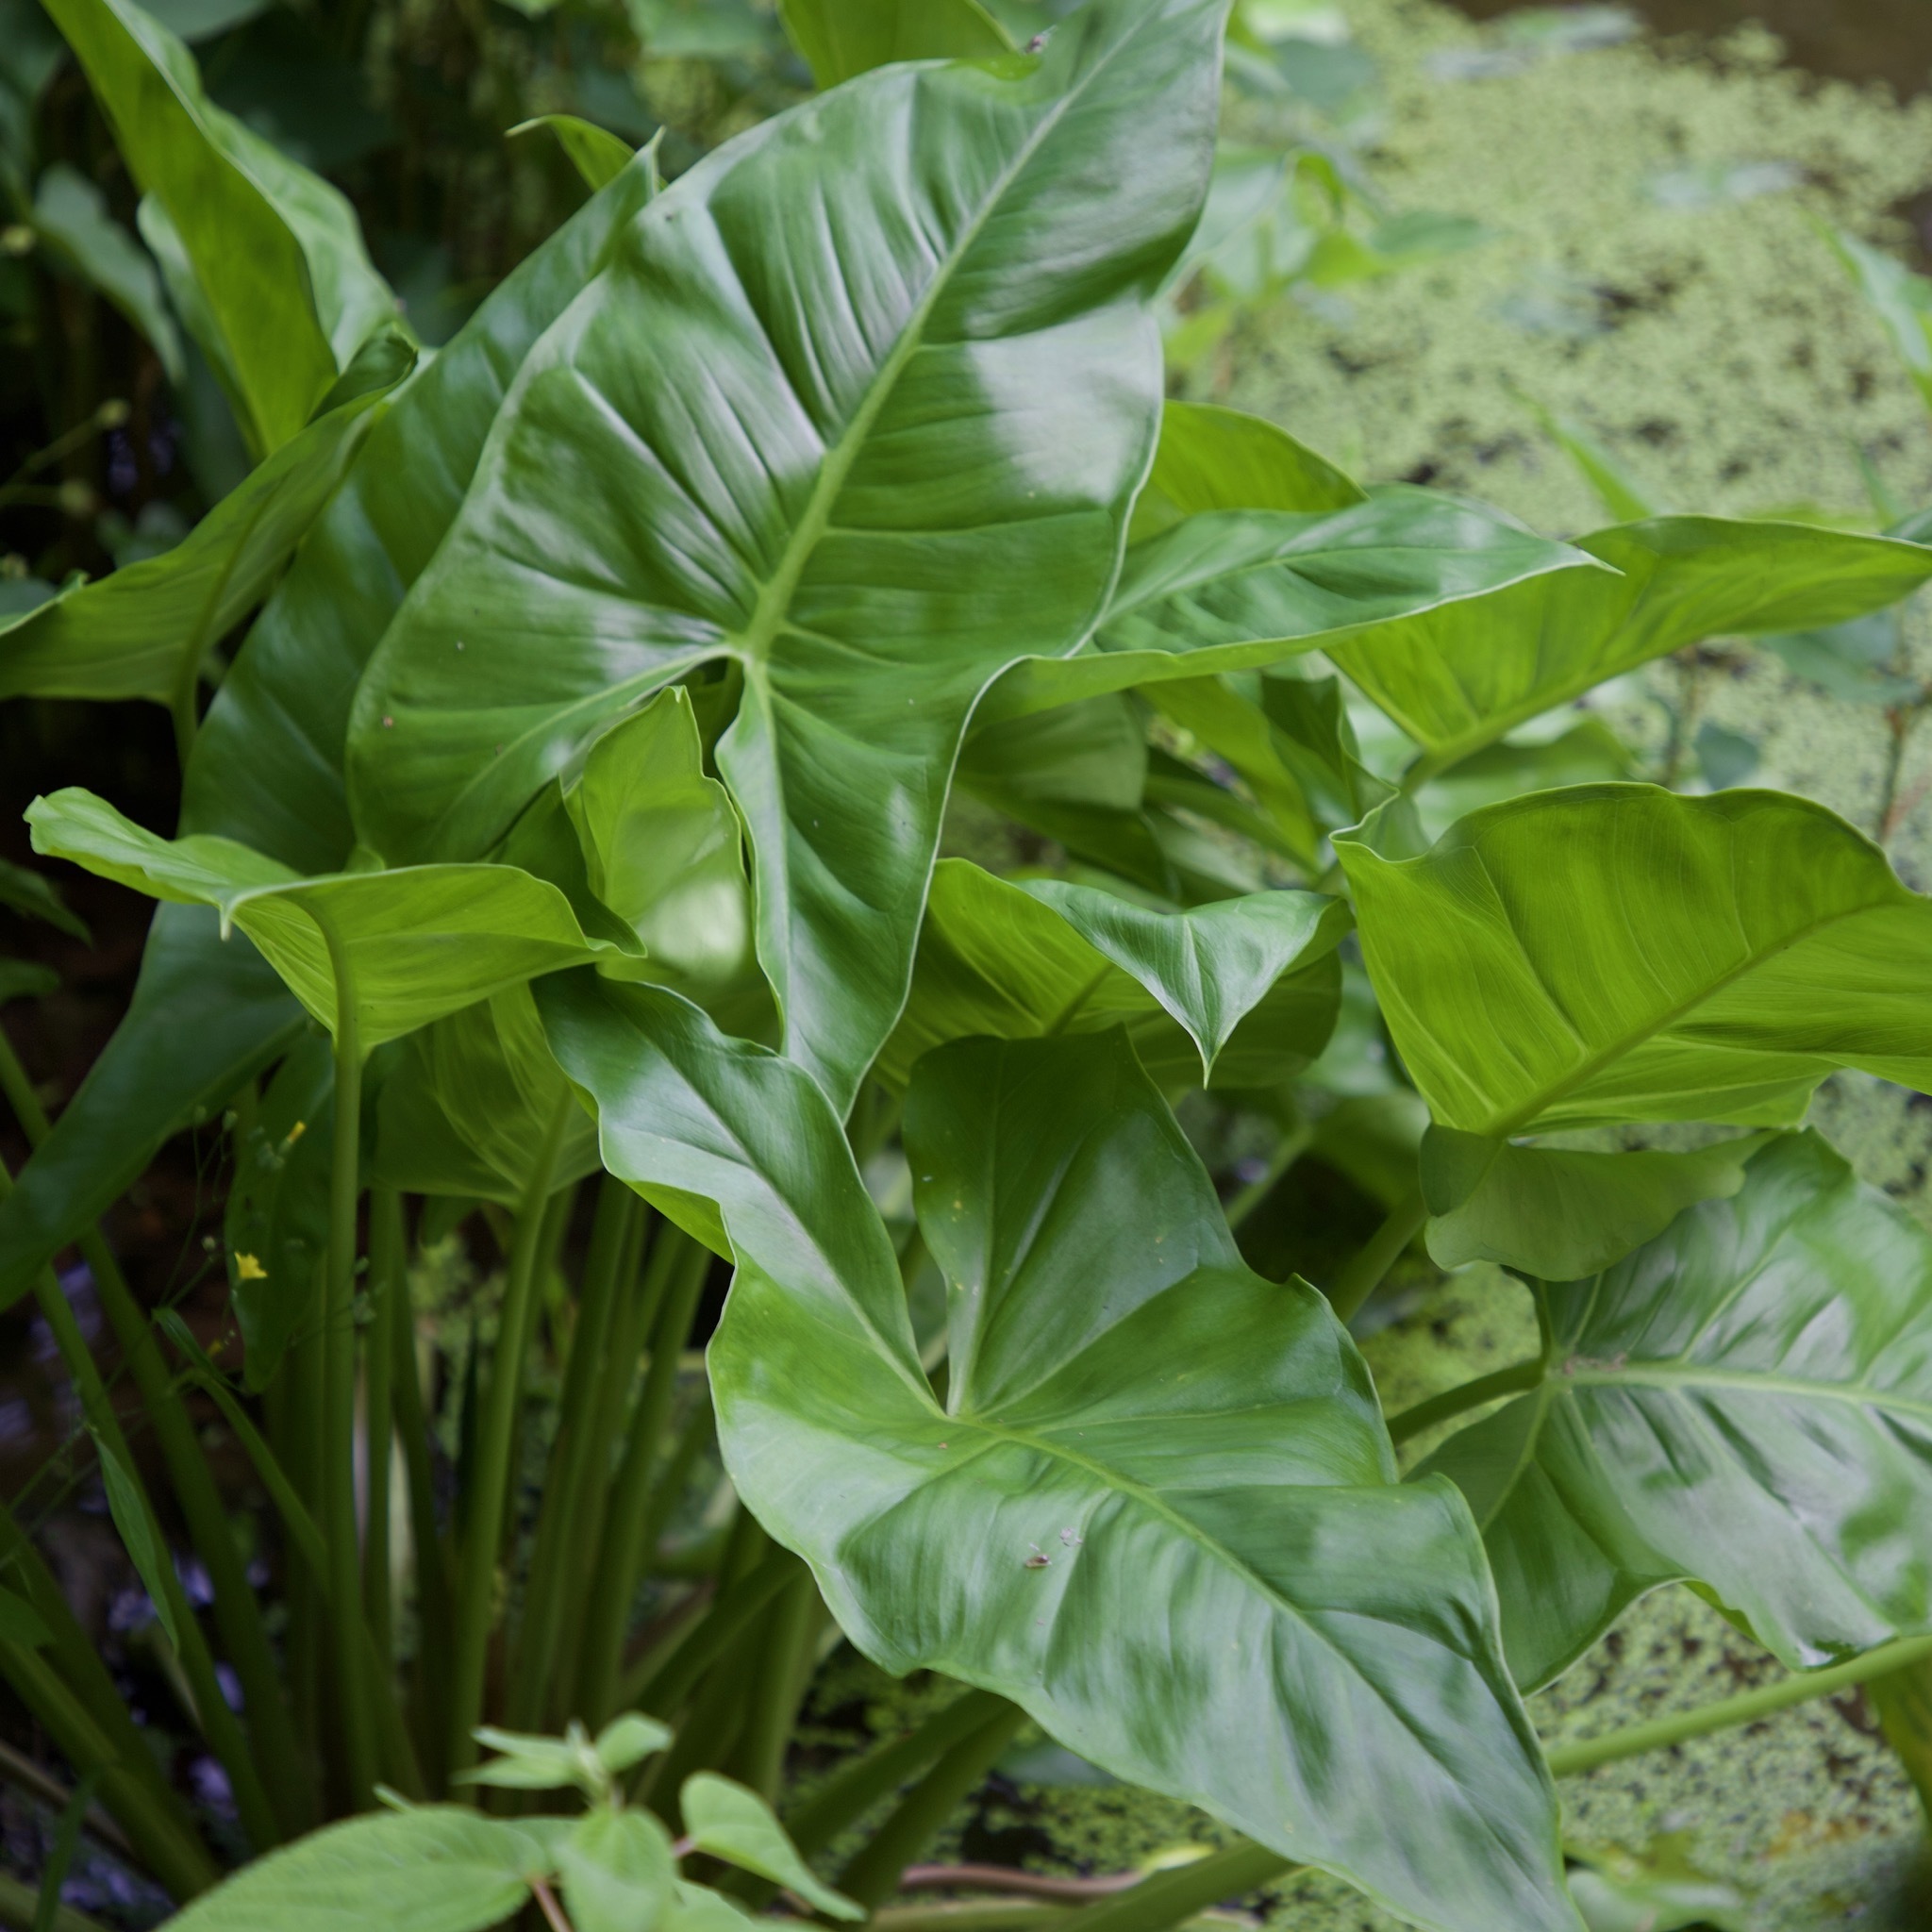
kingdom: Plantae
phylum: Tracheophyta
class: Liliopsida
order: Alismatales
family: Araceae
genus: Peltandra
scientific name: Peltandra virginica
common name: Arrow arum
